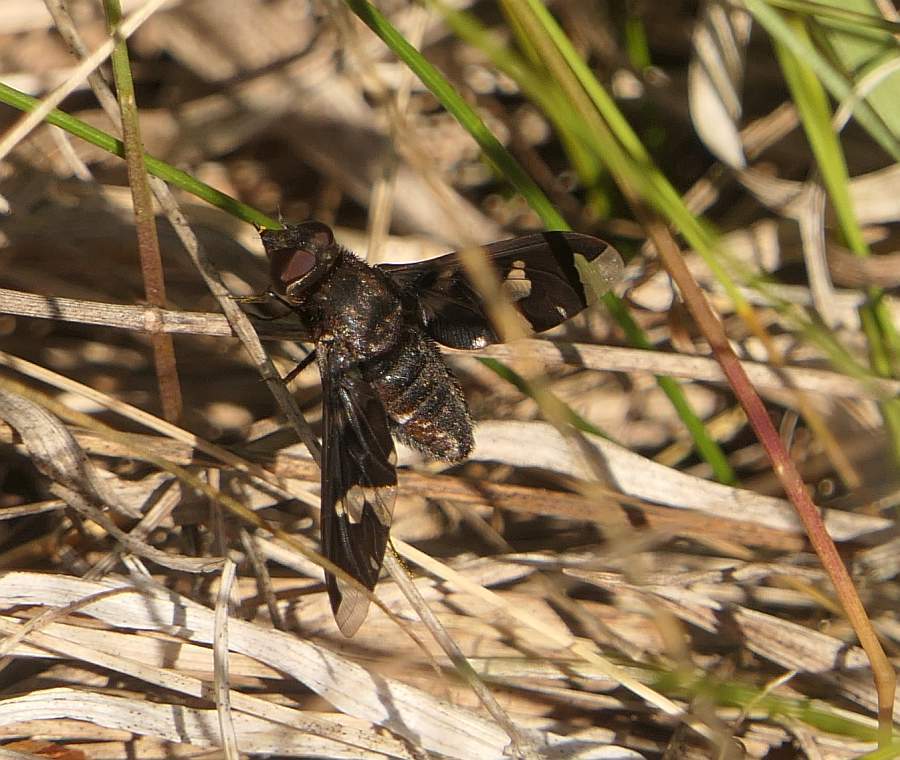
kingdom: Animalia
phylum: Arthropoda
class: Insecta
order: Diptera
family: Bombyliidae
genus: Exoprosopa
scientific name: Exoprosopa decora
